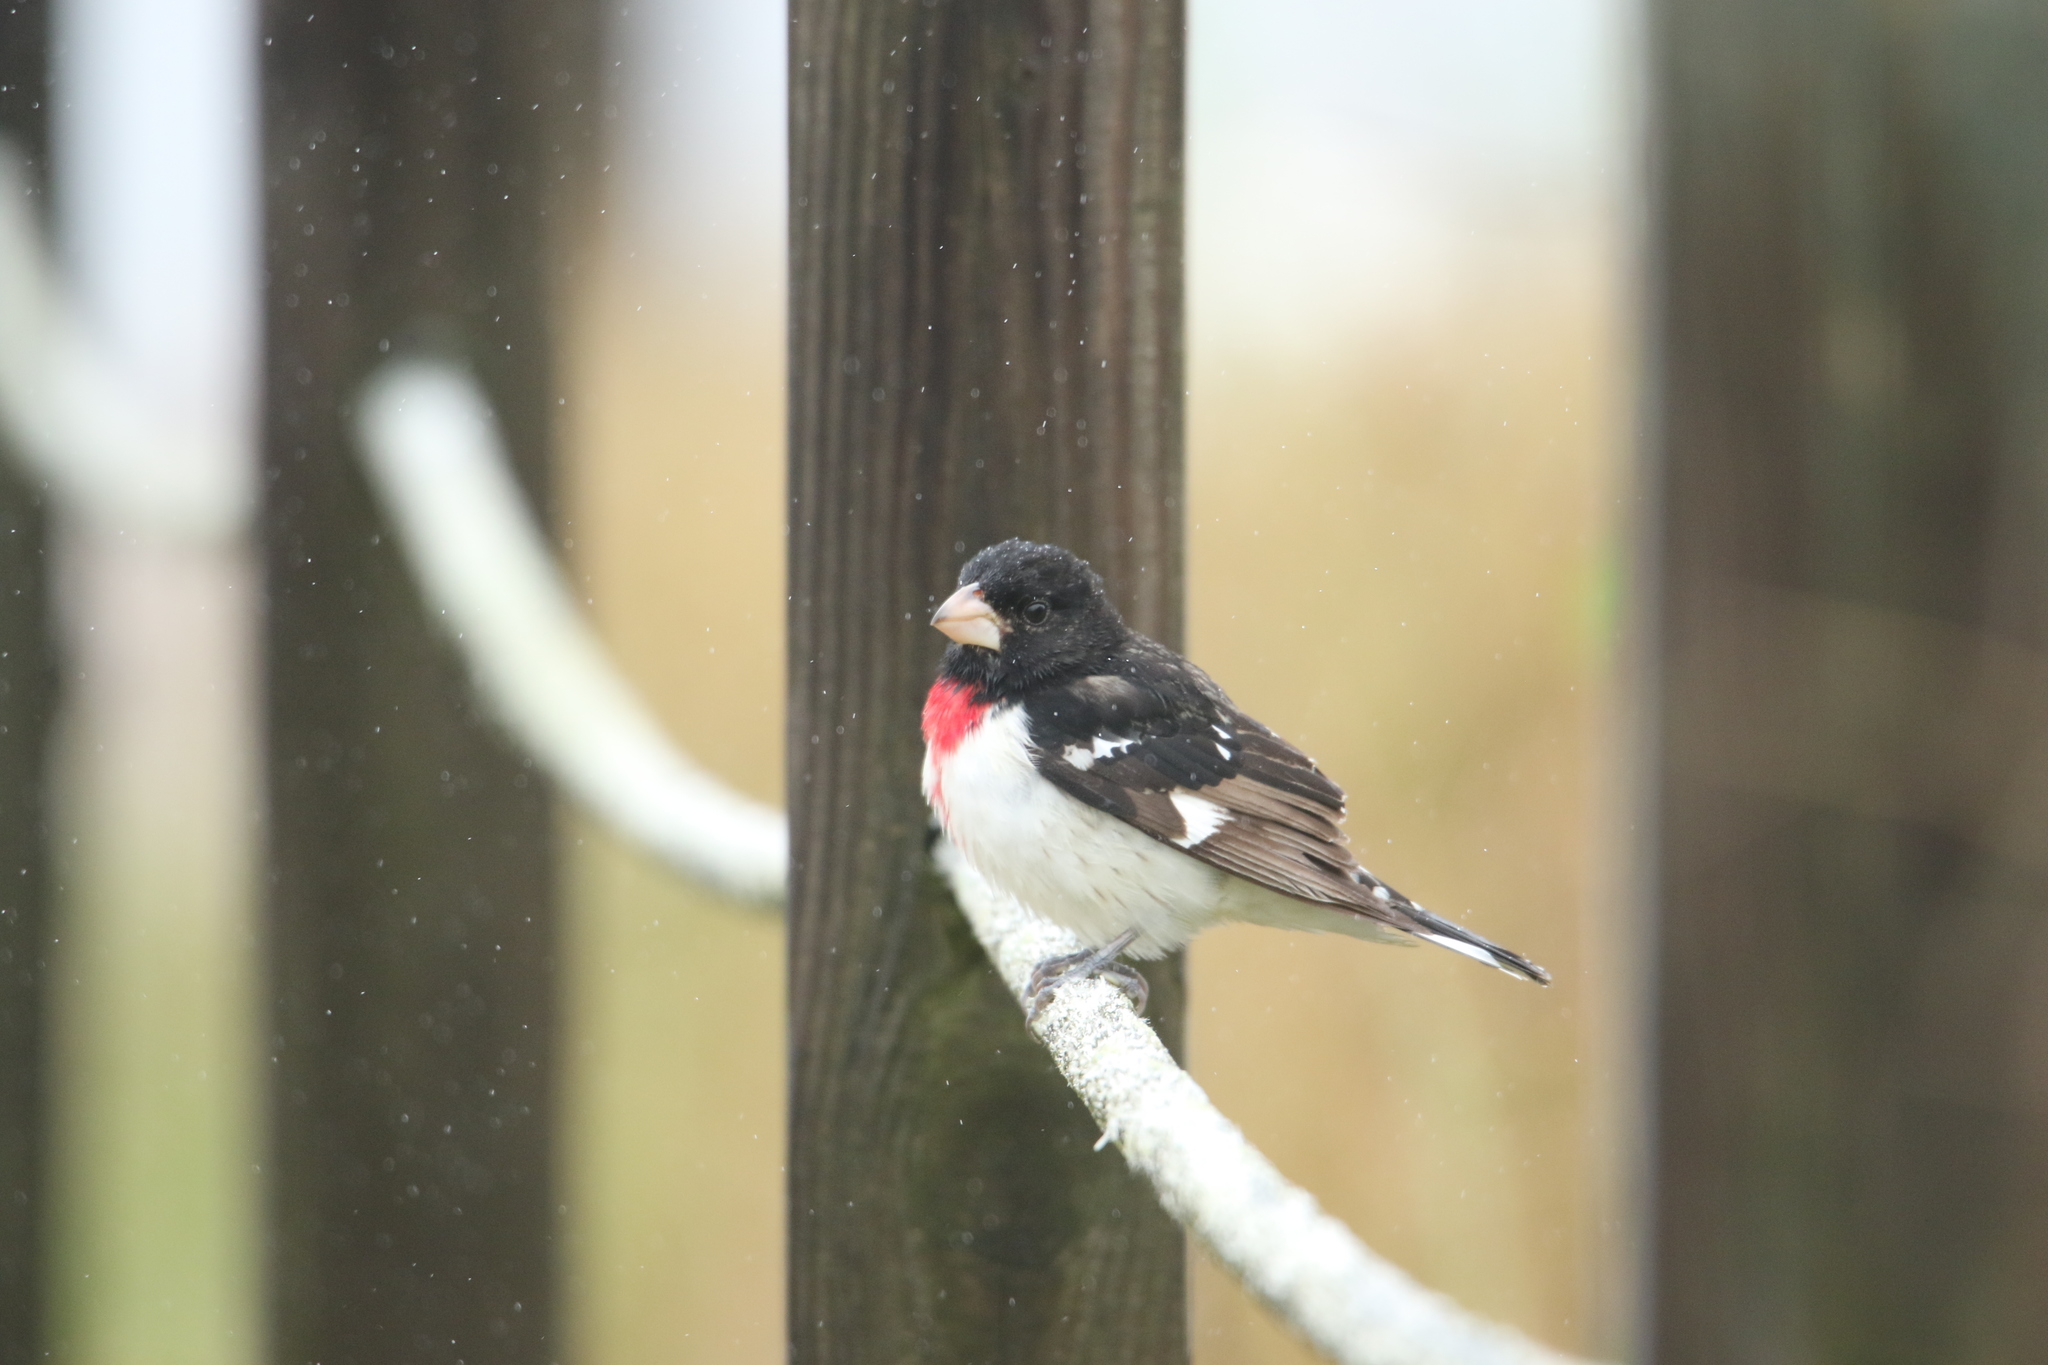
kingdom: Animalia
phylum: Chordata
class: Aves
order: Passeriformes
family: Cardinalidae
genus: Pheucticus
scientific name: Pheucticus ludovicianus
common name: Rose-breasted grosbeak
